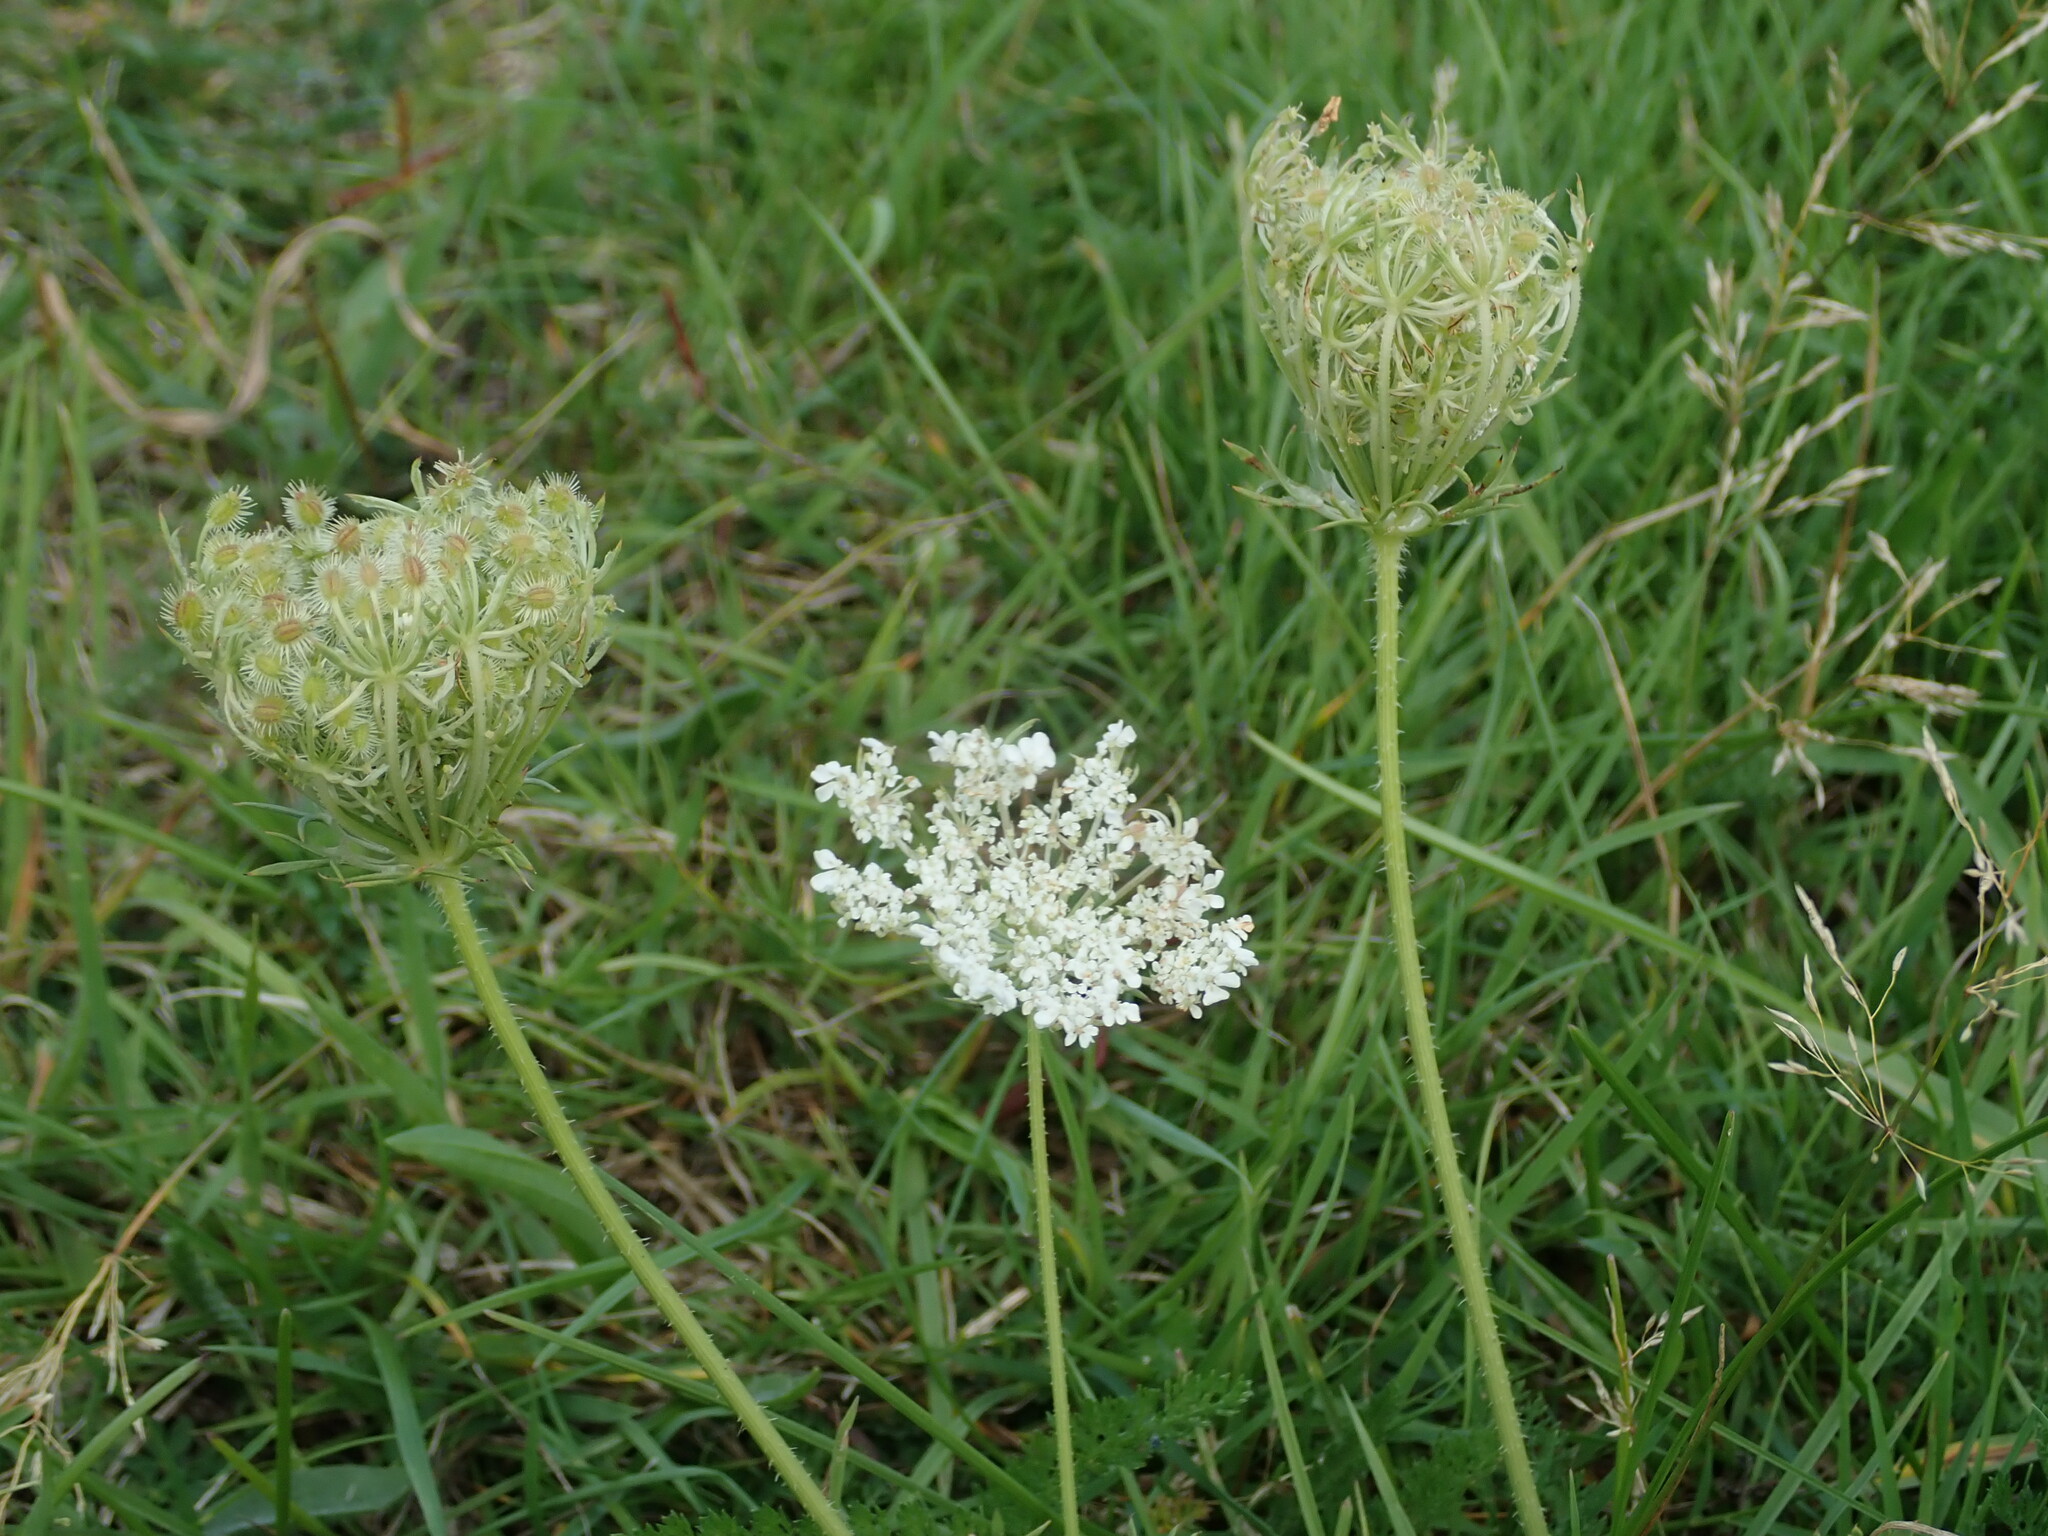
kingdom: Plantae
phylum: Tracheophyta
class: Magnoliopsida
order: Apiales
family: Apiaceae
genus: Daucus
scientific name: Daucus carota
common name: Wild carrot
